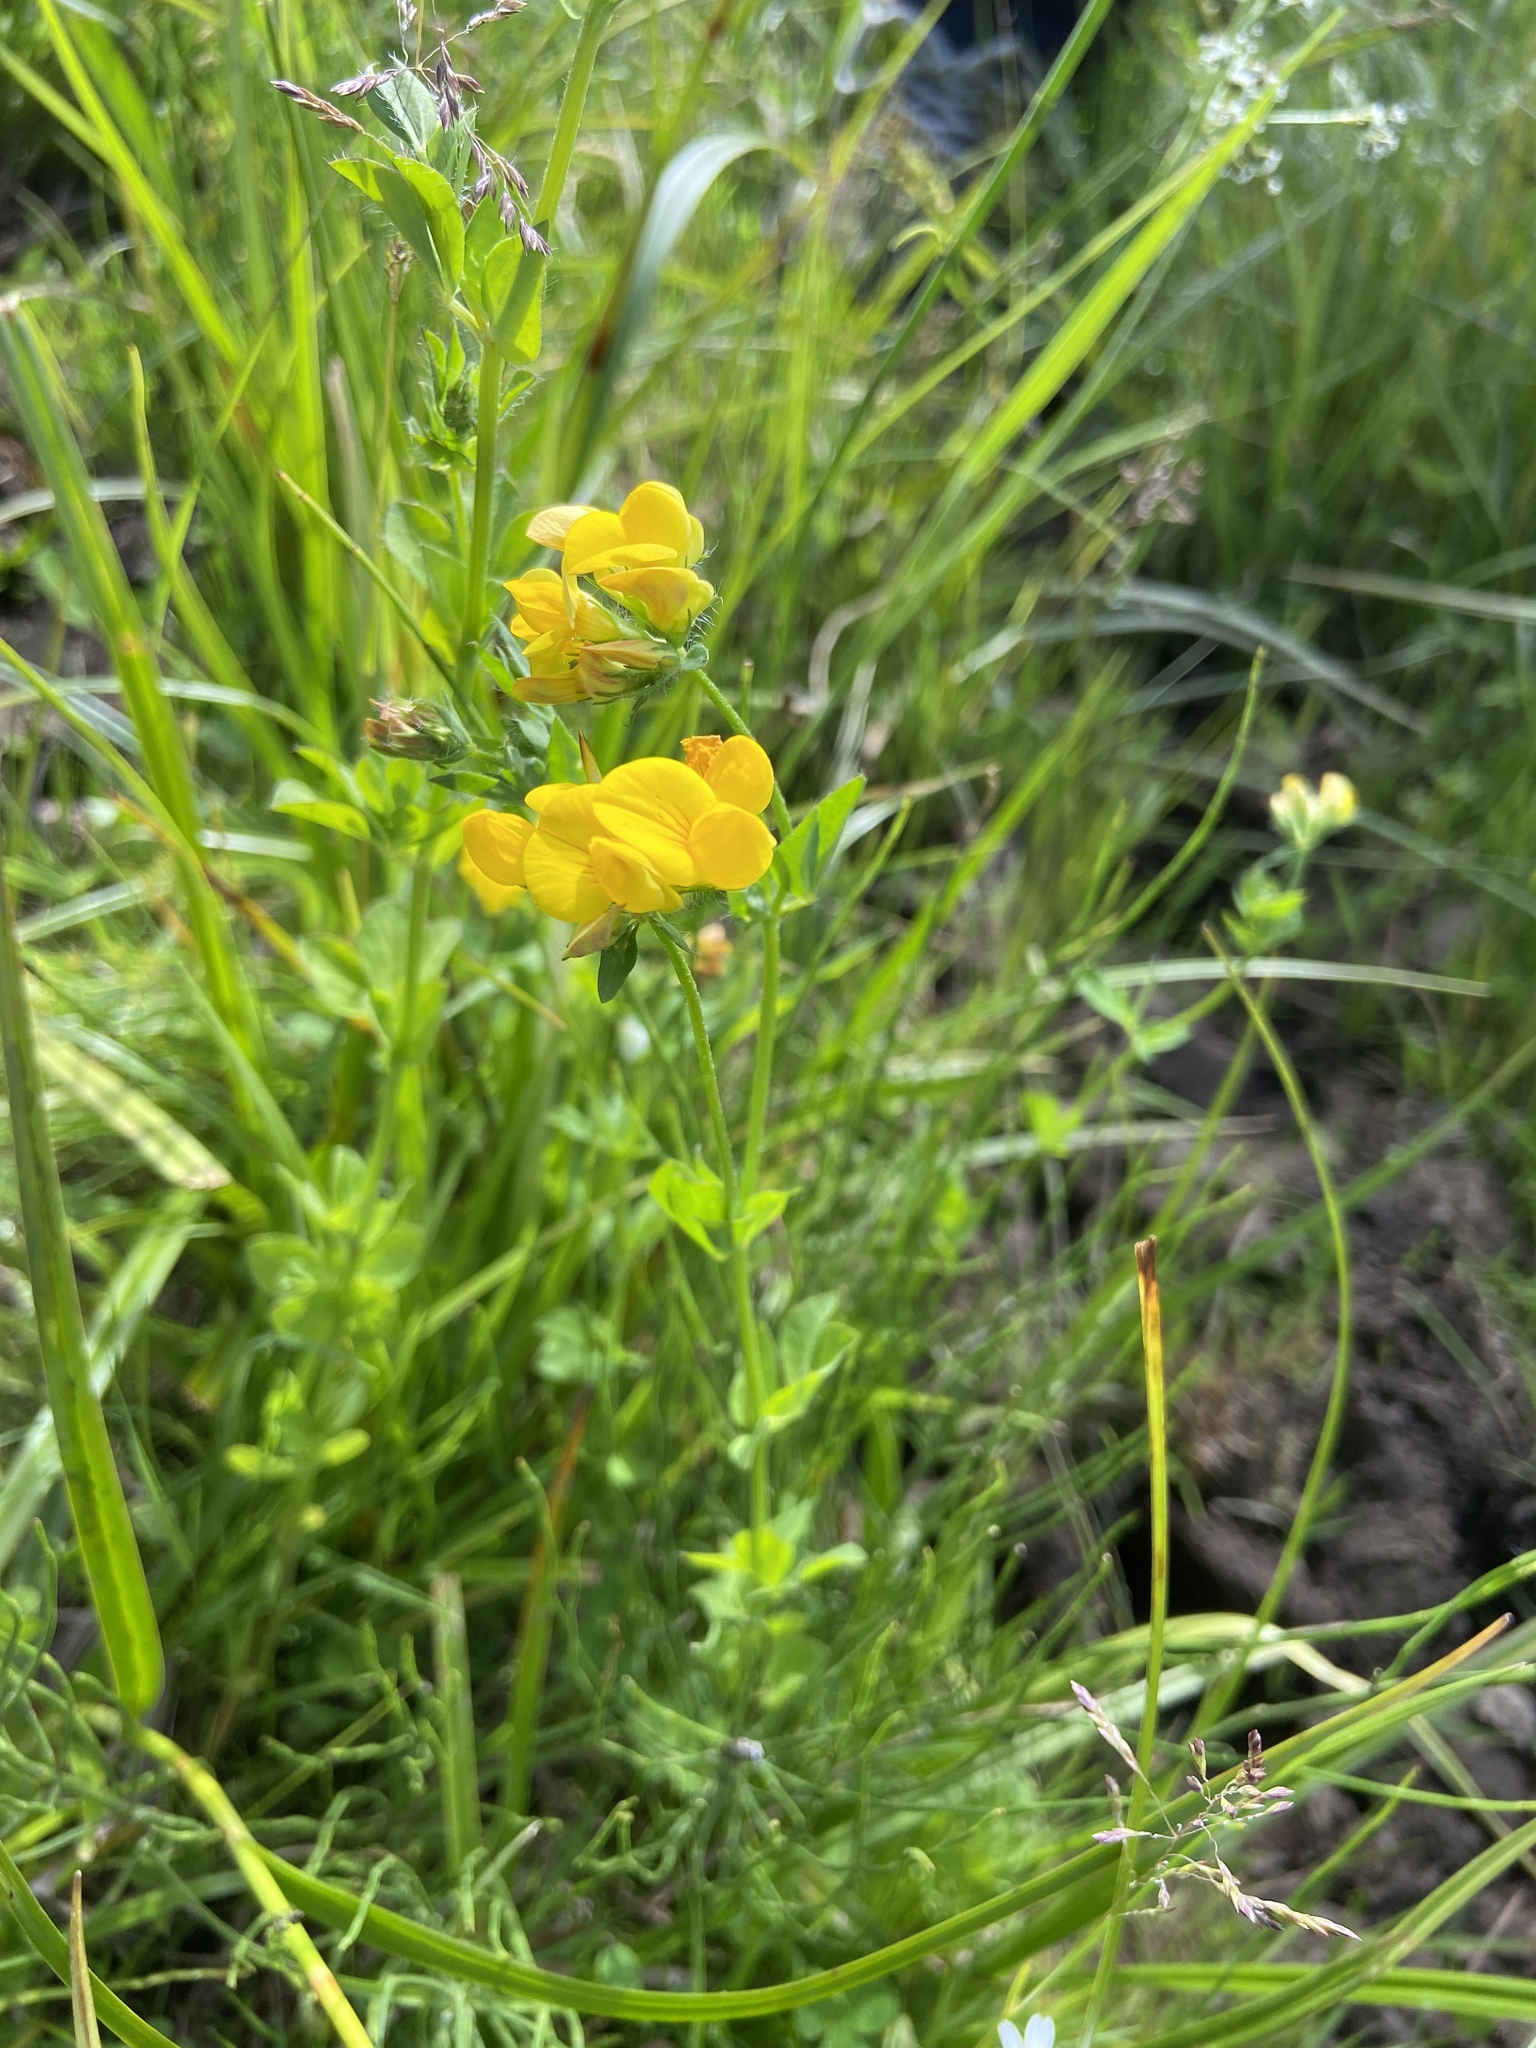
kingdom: Plantae
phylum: Tracheophyta
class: Magnoliopsida
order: Fabales
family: Fabaceae
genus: Lotus
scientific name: Lotus corniculatus
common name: Common bird's-foot-trefoil
